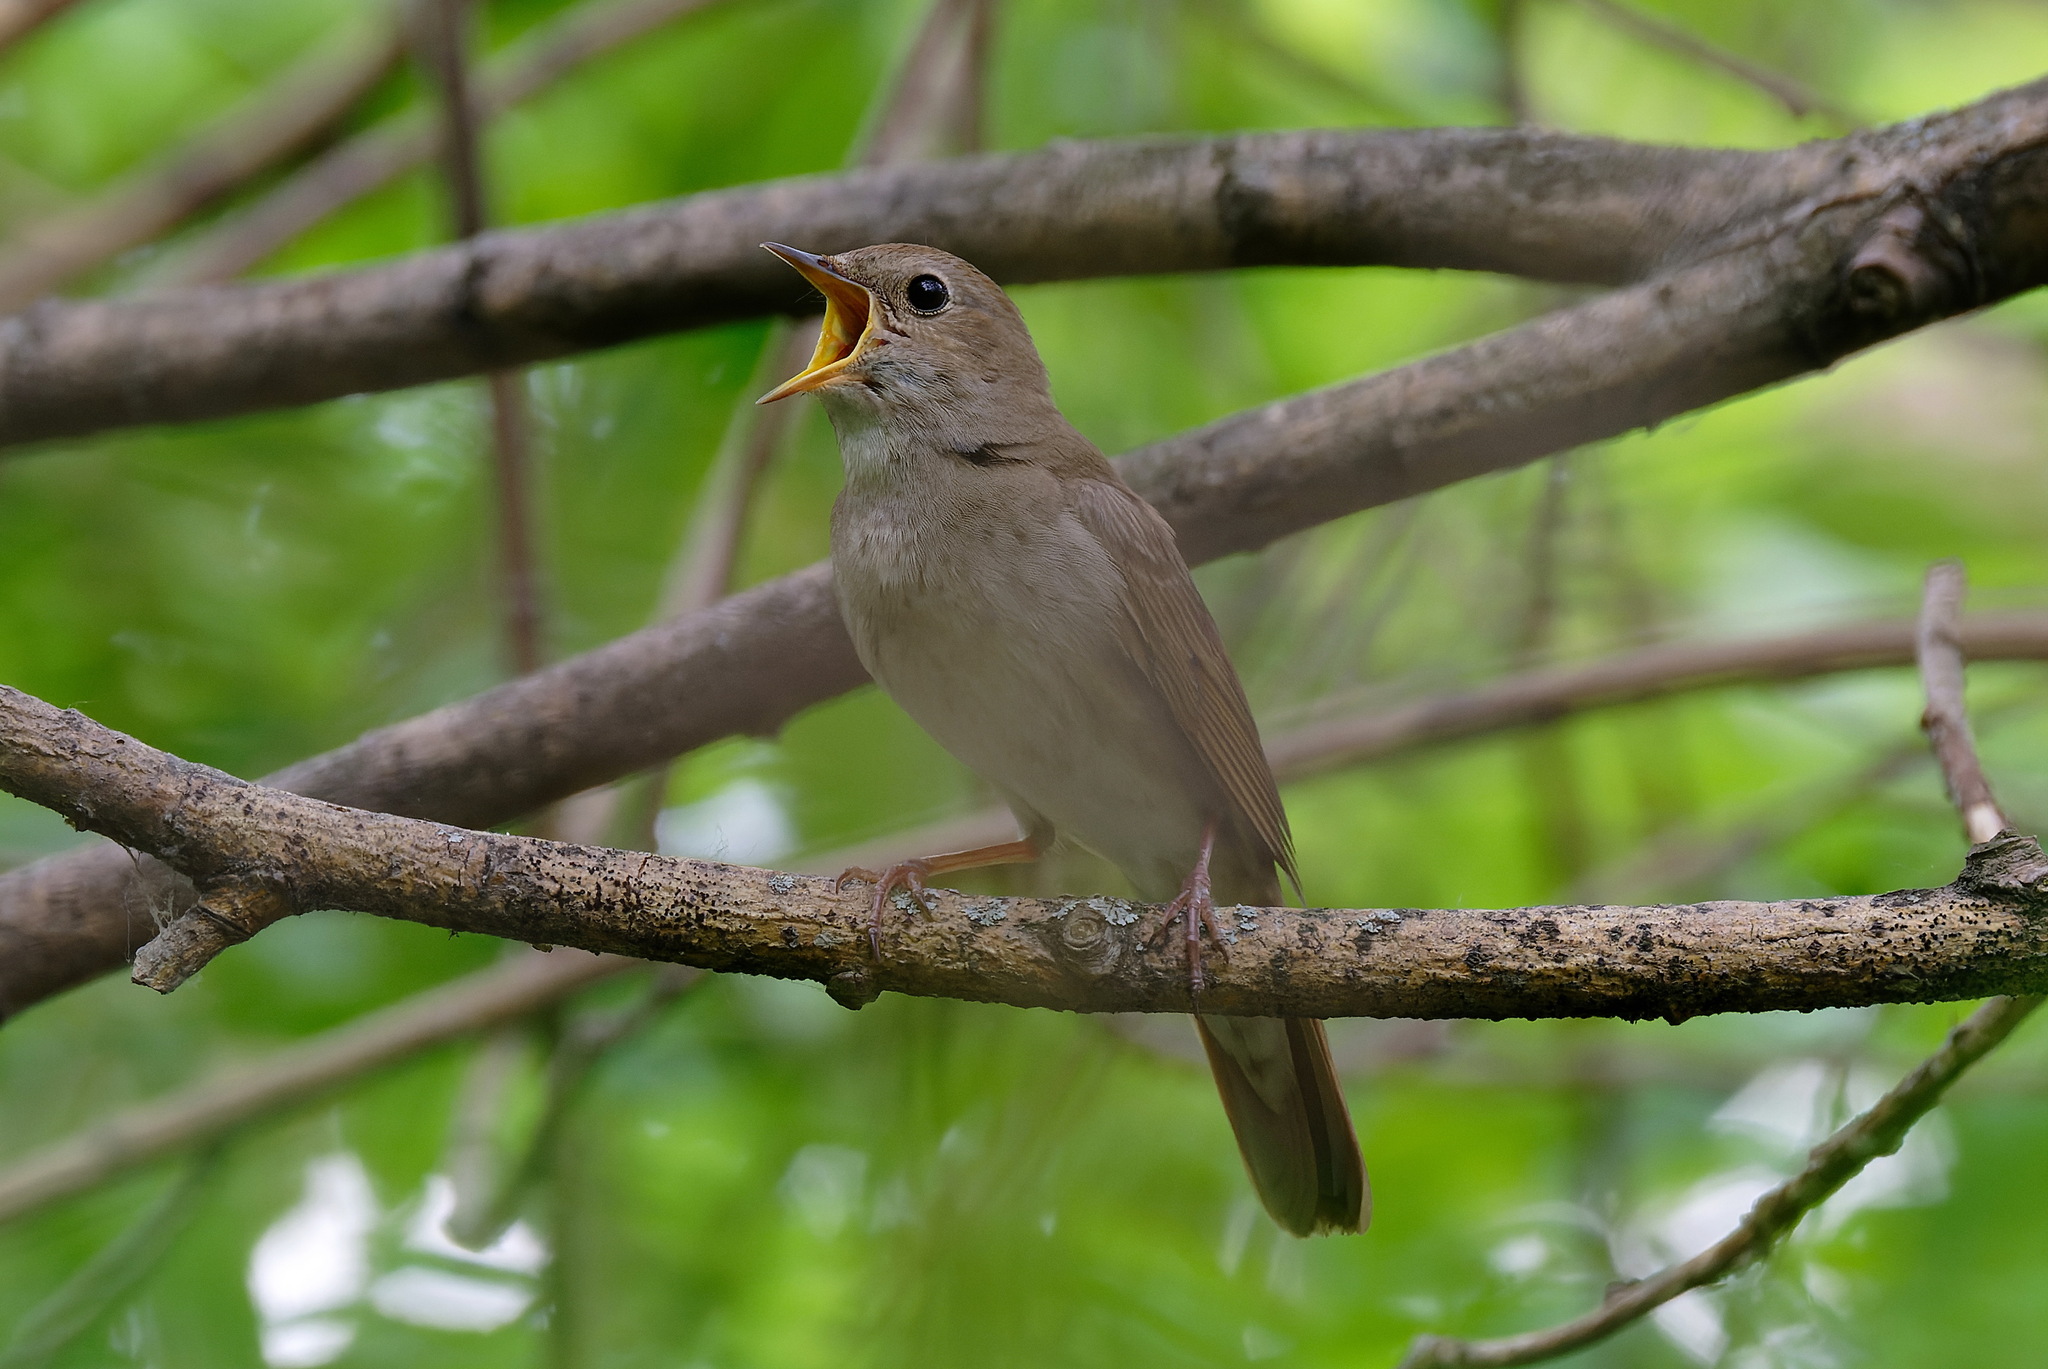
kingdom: Animalia
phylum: Chordata
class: Aves
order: Passeriformes
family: Muscicapidae
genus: Luscinia
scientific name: Luscinia luscinia
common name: Thrush nightingale
